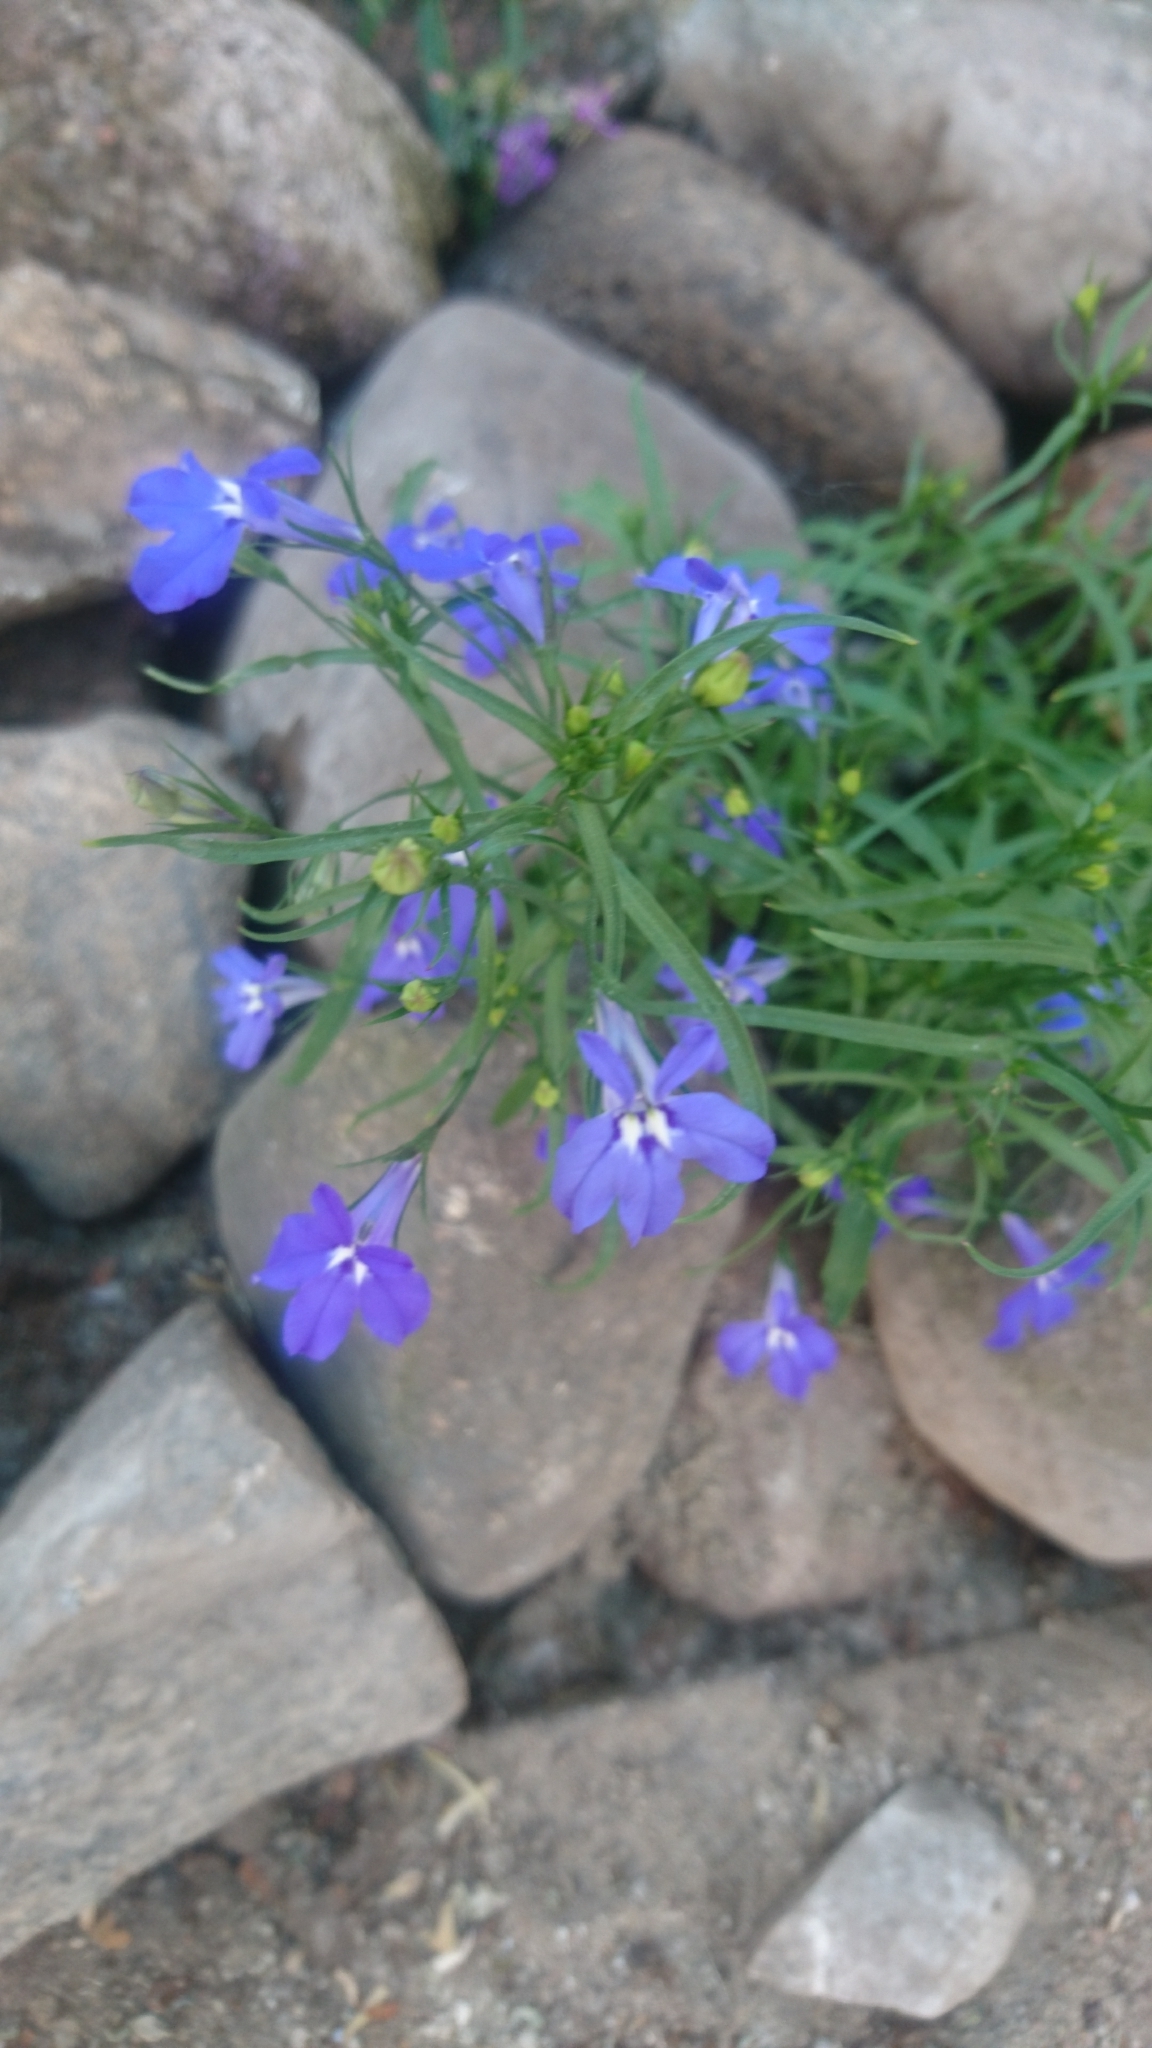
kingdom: Plantae
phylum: Tracheophyta
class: Magnoliopsida
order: Asterales
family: Campanulaceae
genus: Lobelia
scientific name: Lobelia erinus
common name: Edging lobelia
